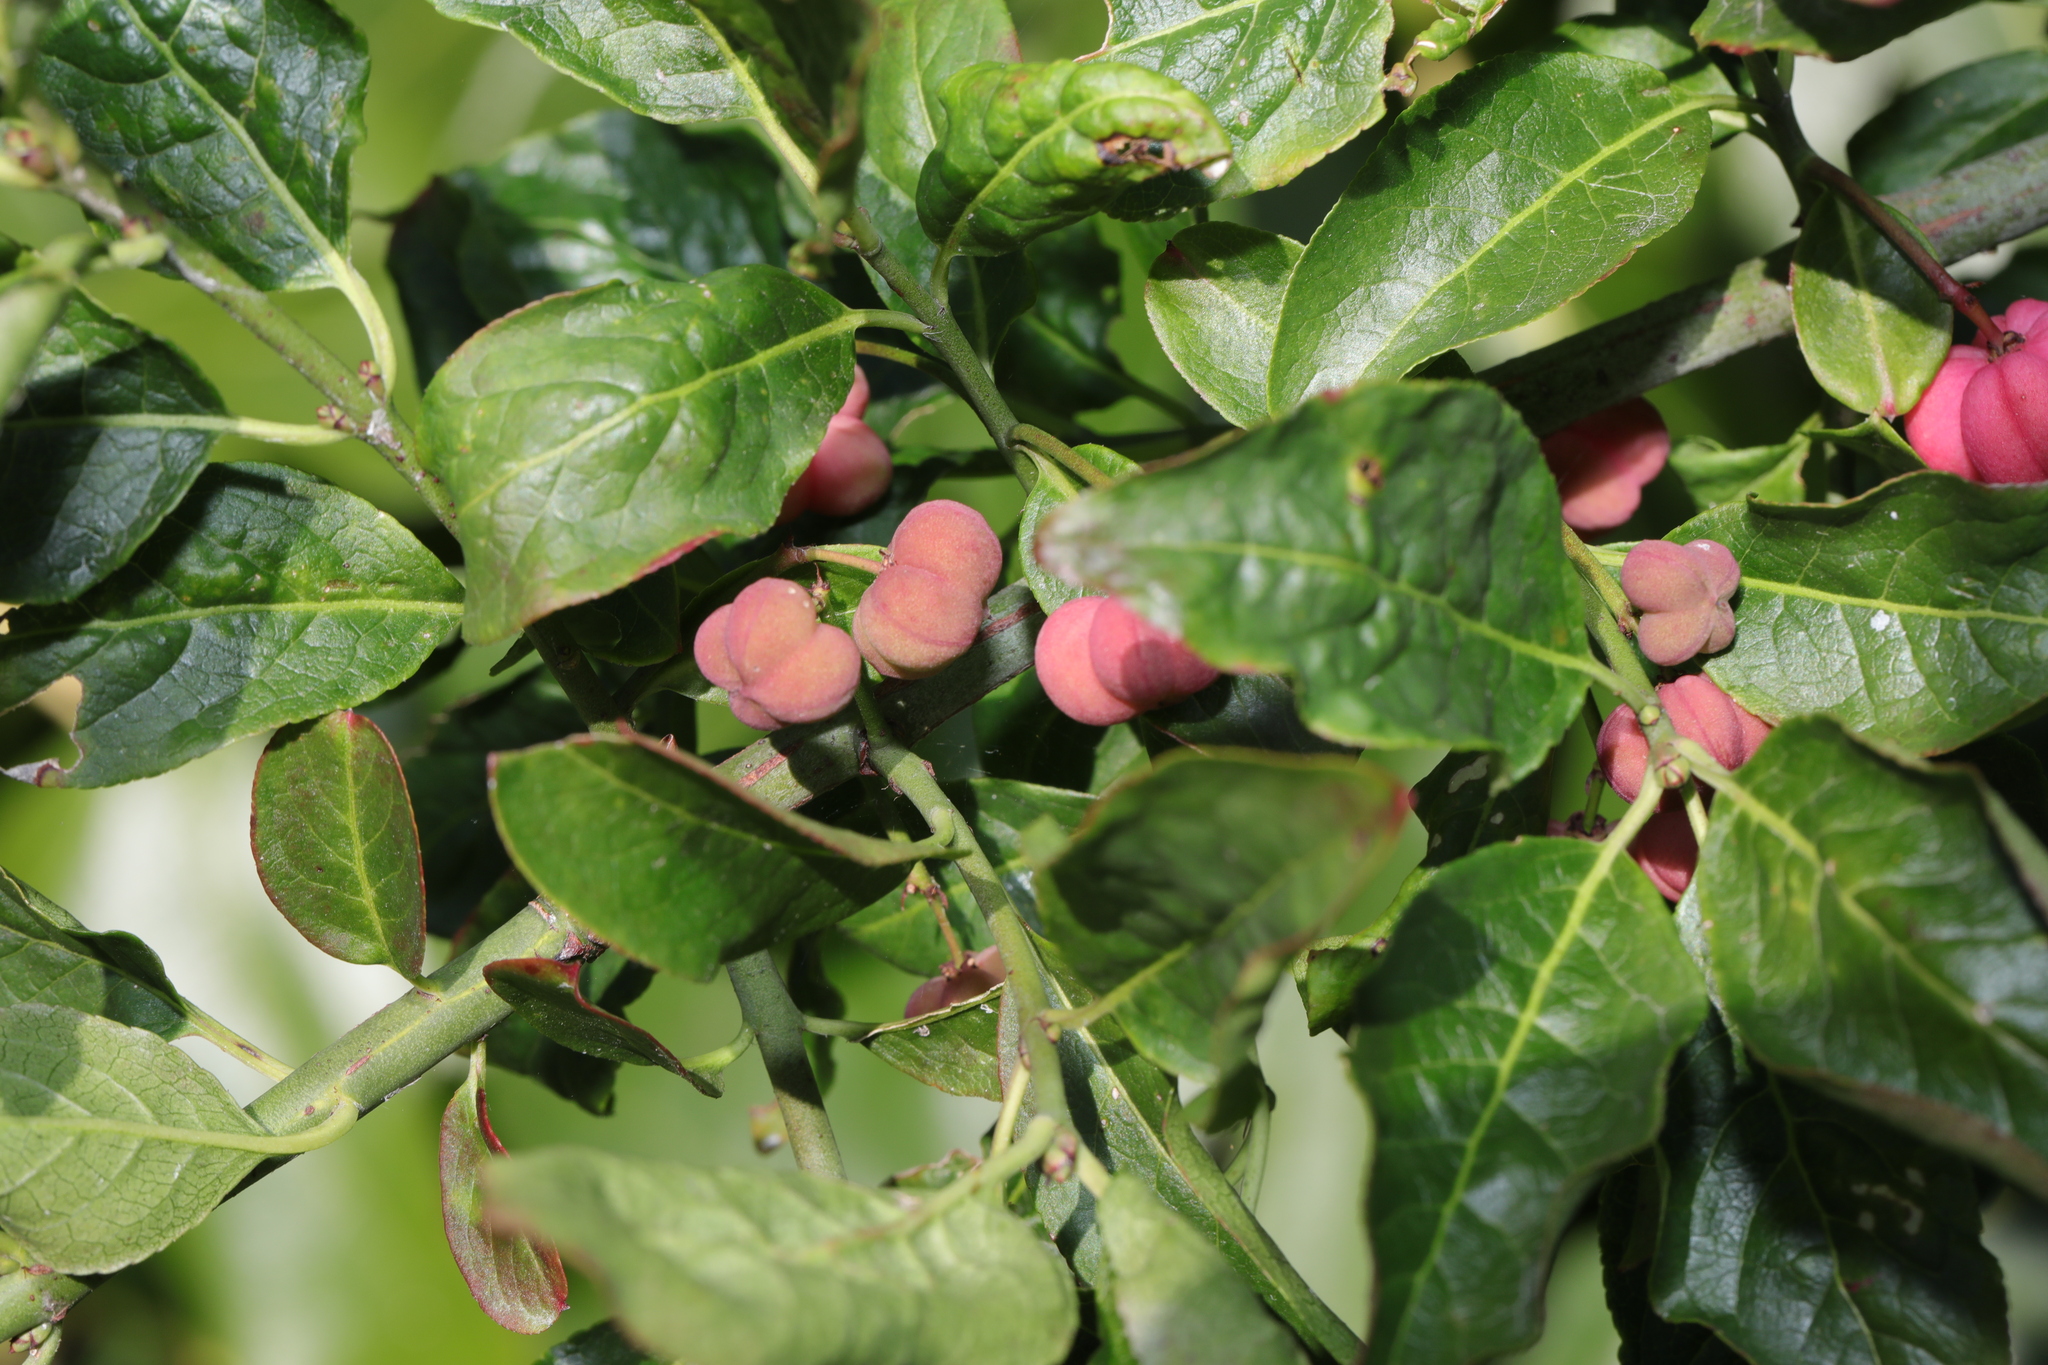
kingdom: Plantae
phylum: Tracheophyta
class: Magnoliopsida
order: Celastrales
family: Celastraceae
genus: Euonymus
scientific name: Euonymus europaeus
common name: Spindle
